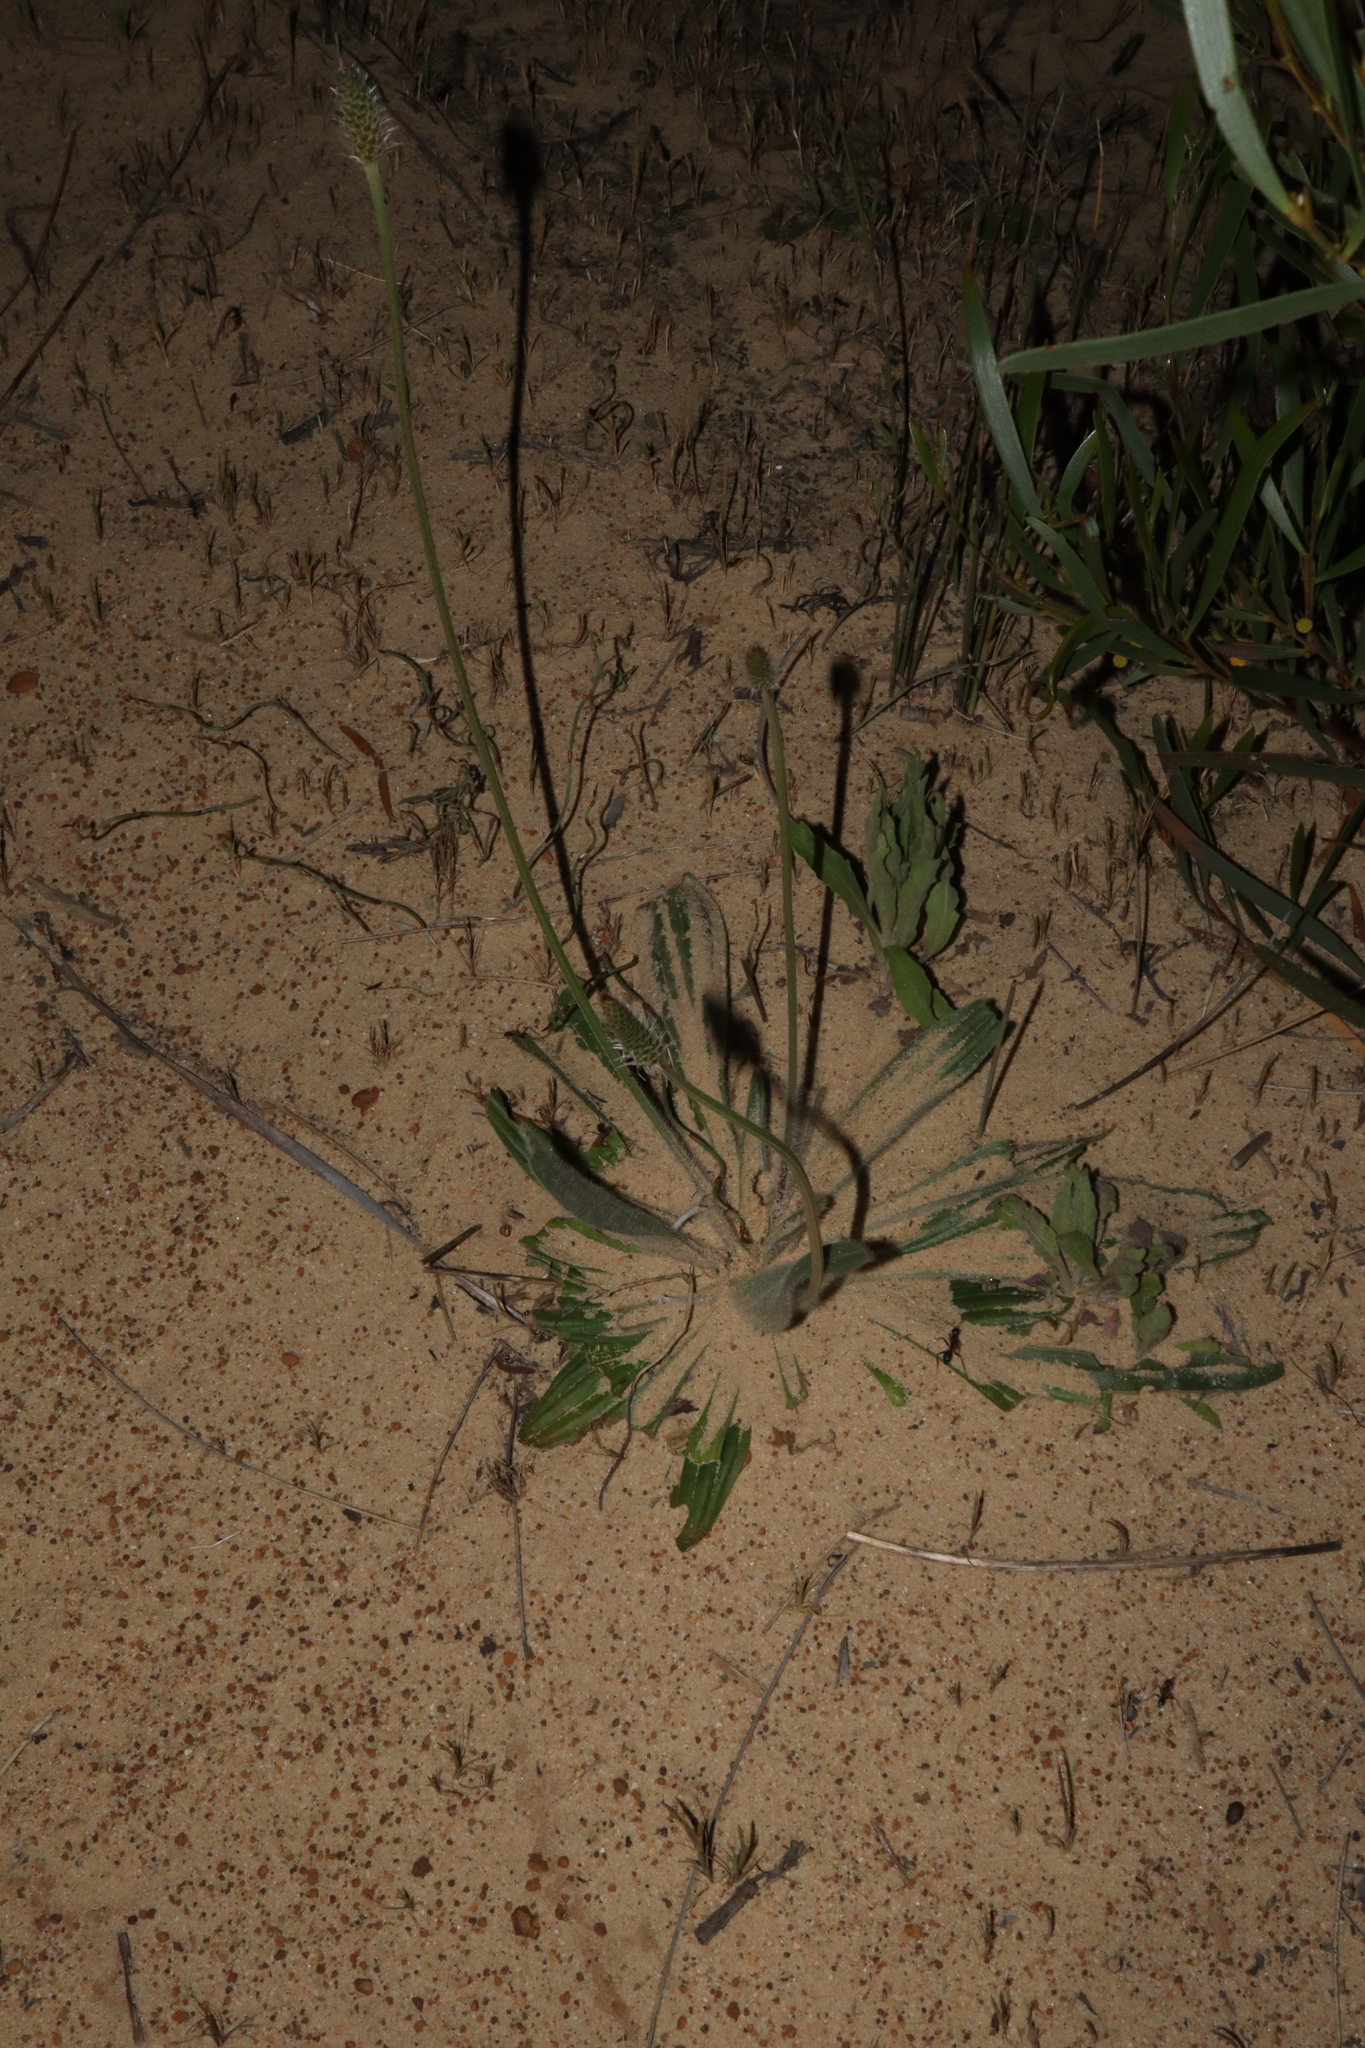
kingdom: Plantae
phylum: Tracheophyta
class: Magnoliopsida
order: Lamiales
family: Plantaginaceae
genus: Plantago
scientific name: Plantago lanceolata
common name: Ribwort plantain
